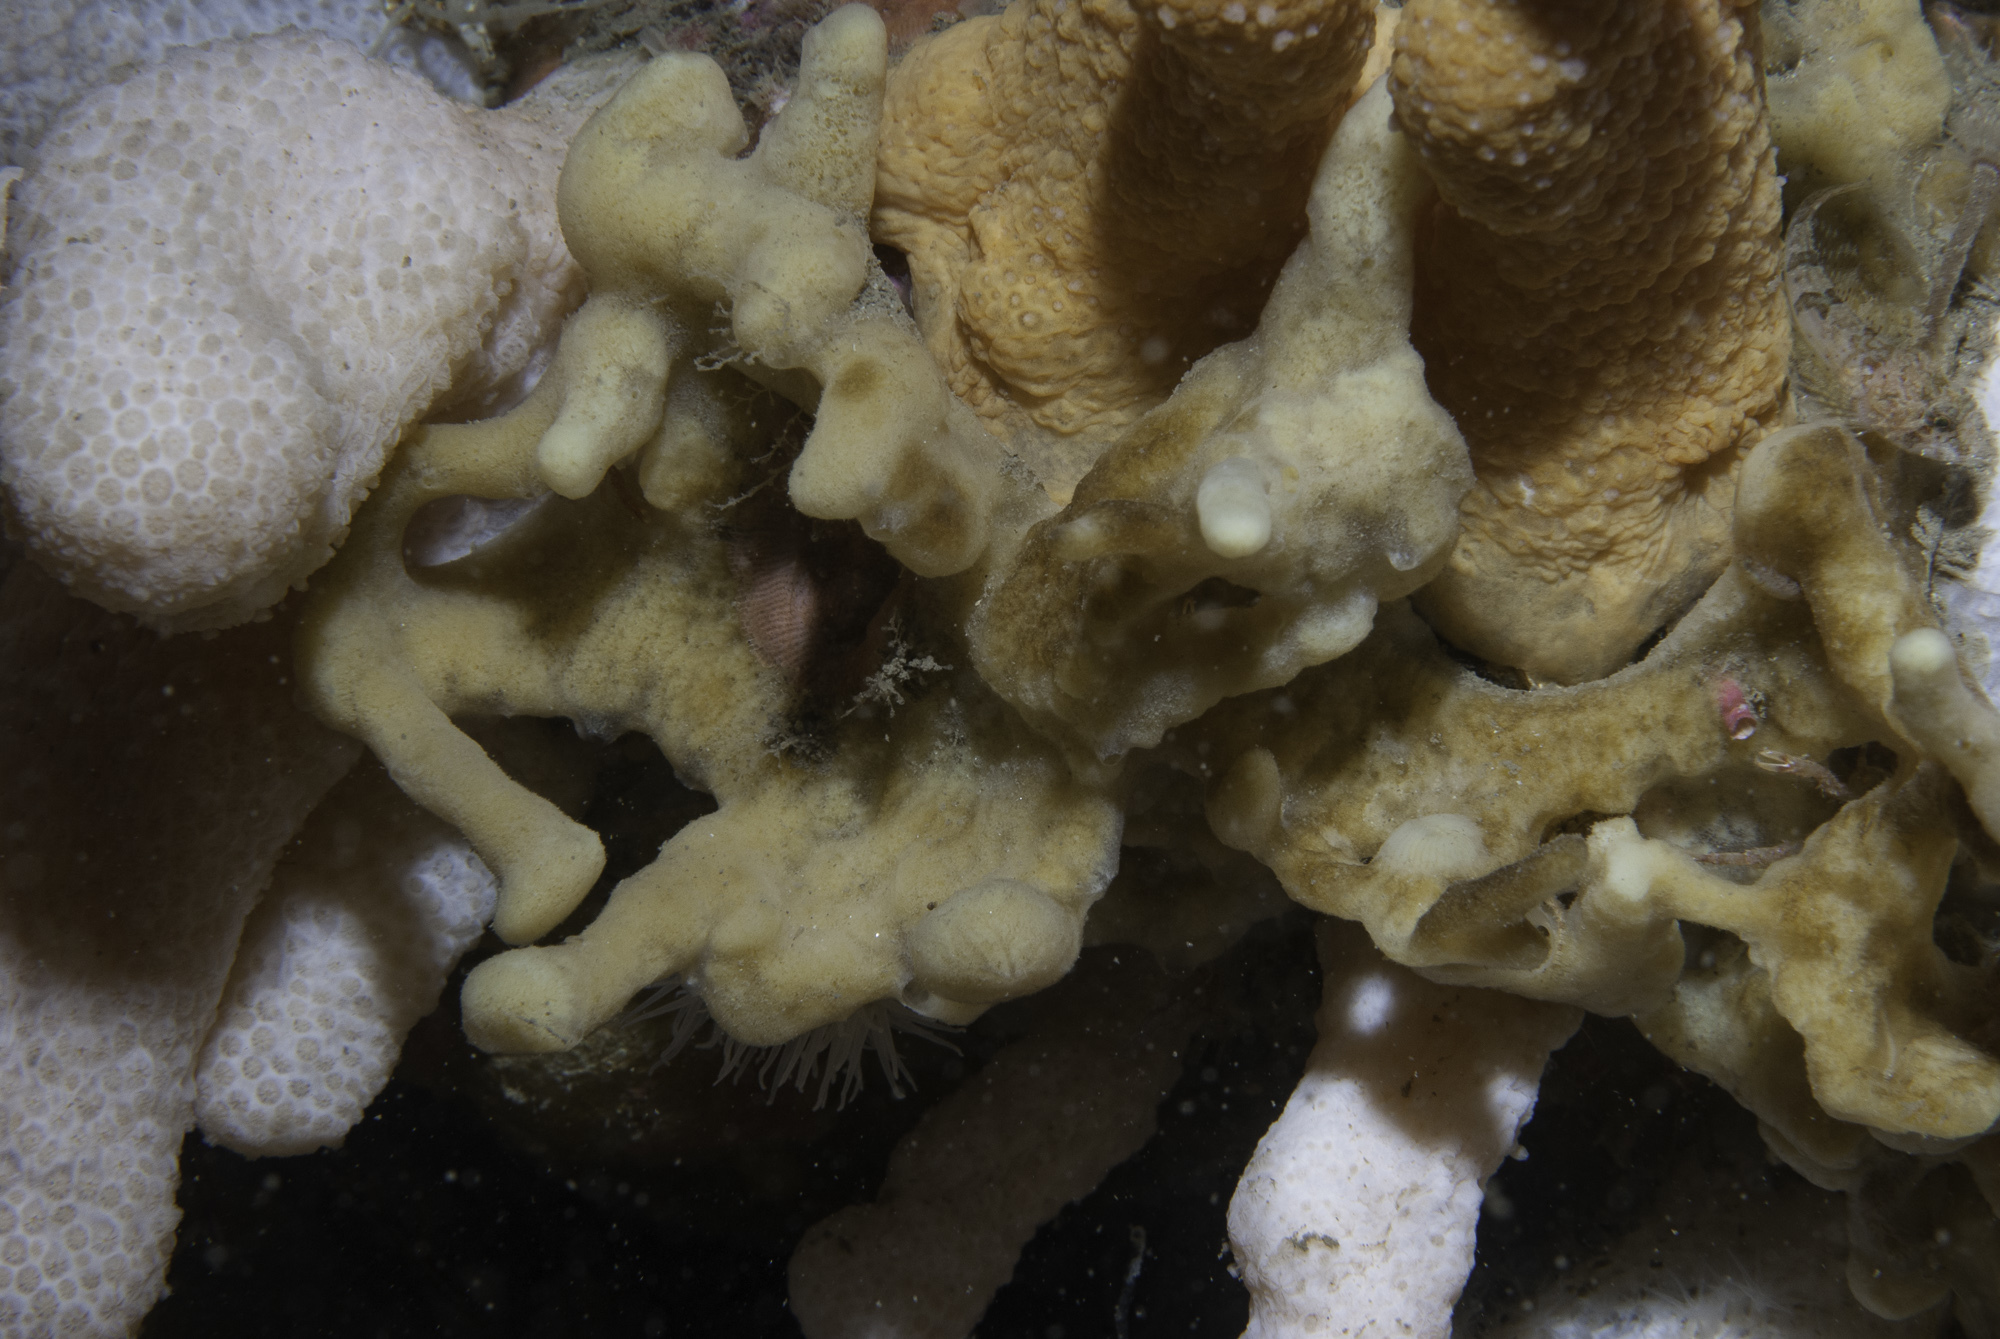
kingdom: Animalia
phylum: Porifera
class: Demospongiae
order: Poecilosclerida
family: Acarnidae
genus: Iophon
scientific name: Iophon nigricans
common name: Yellow-fingered horny sponge
